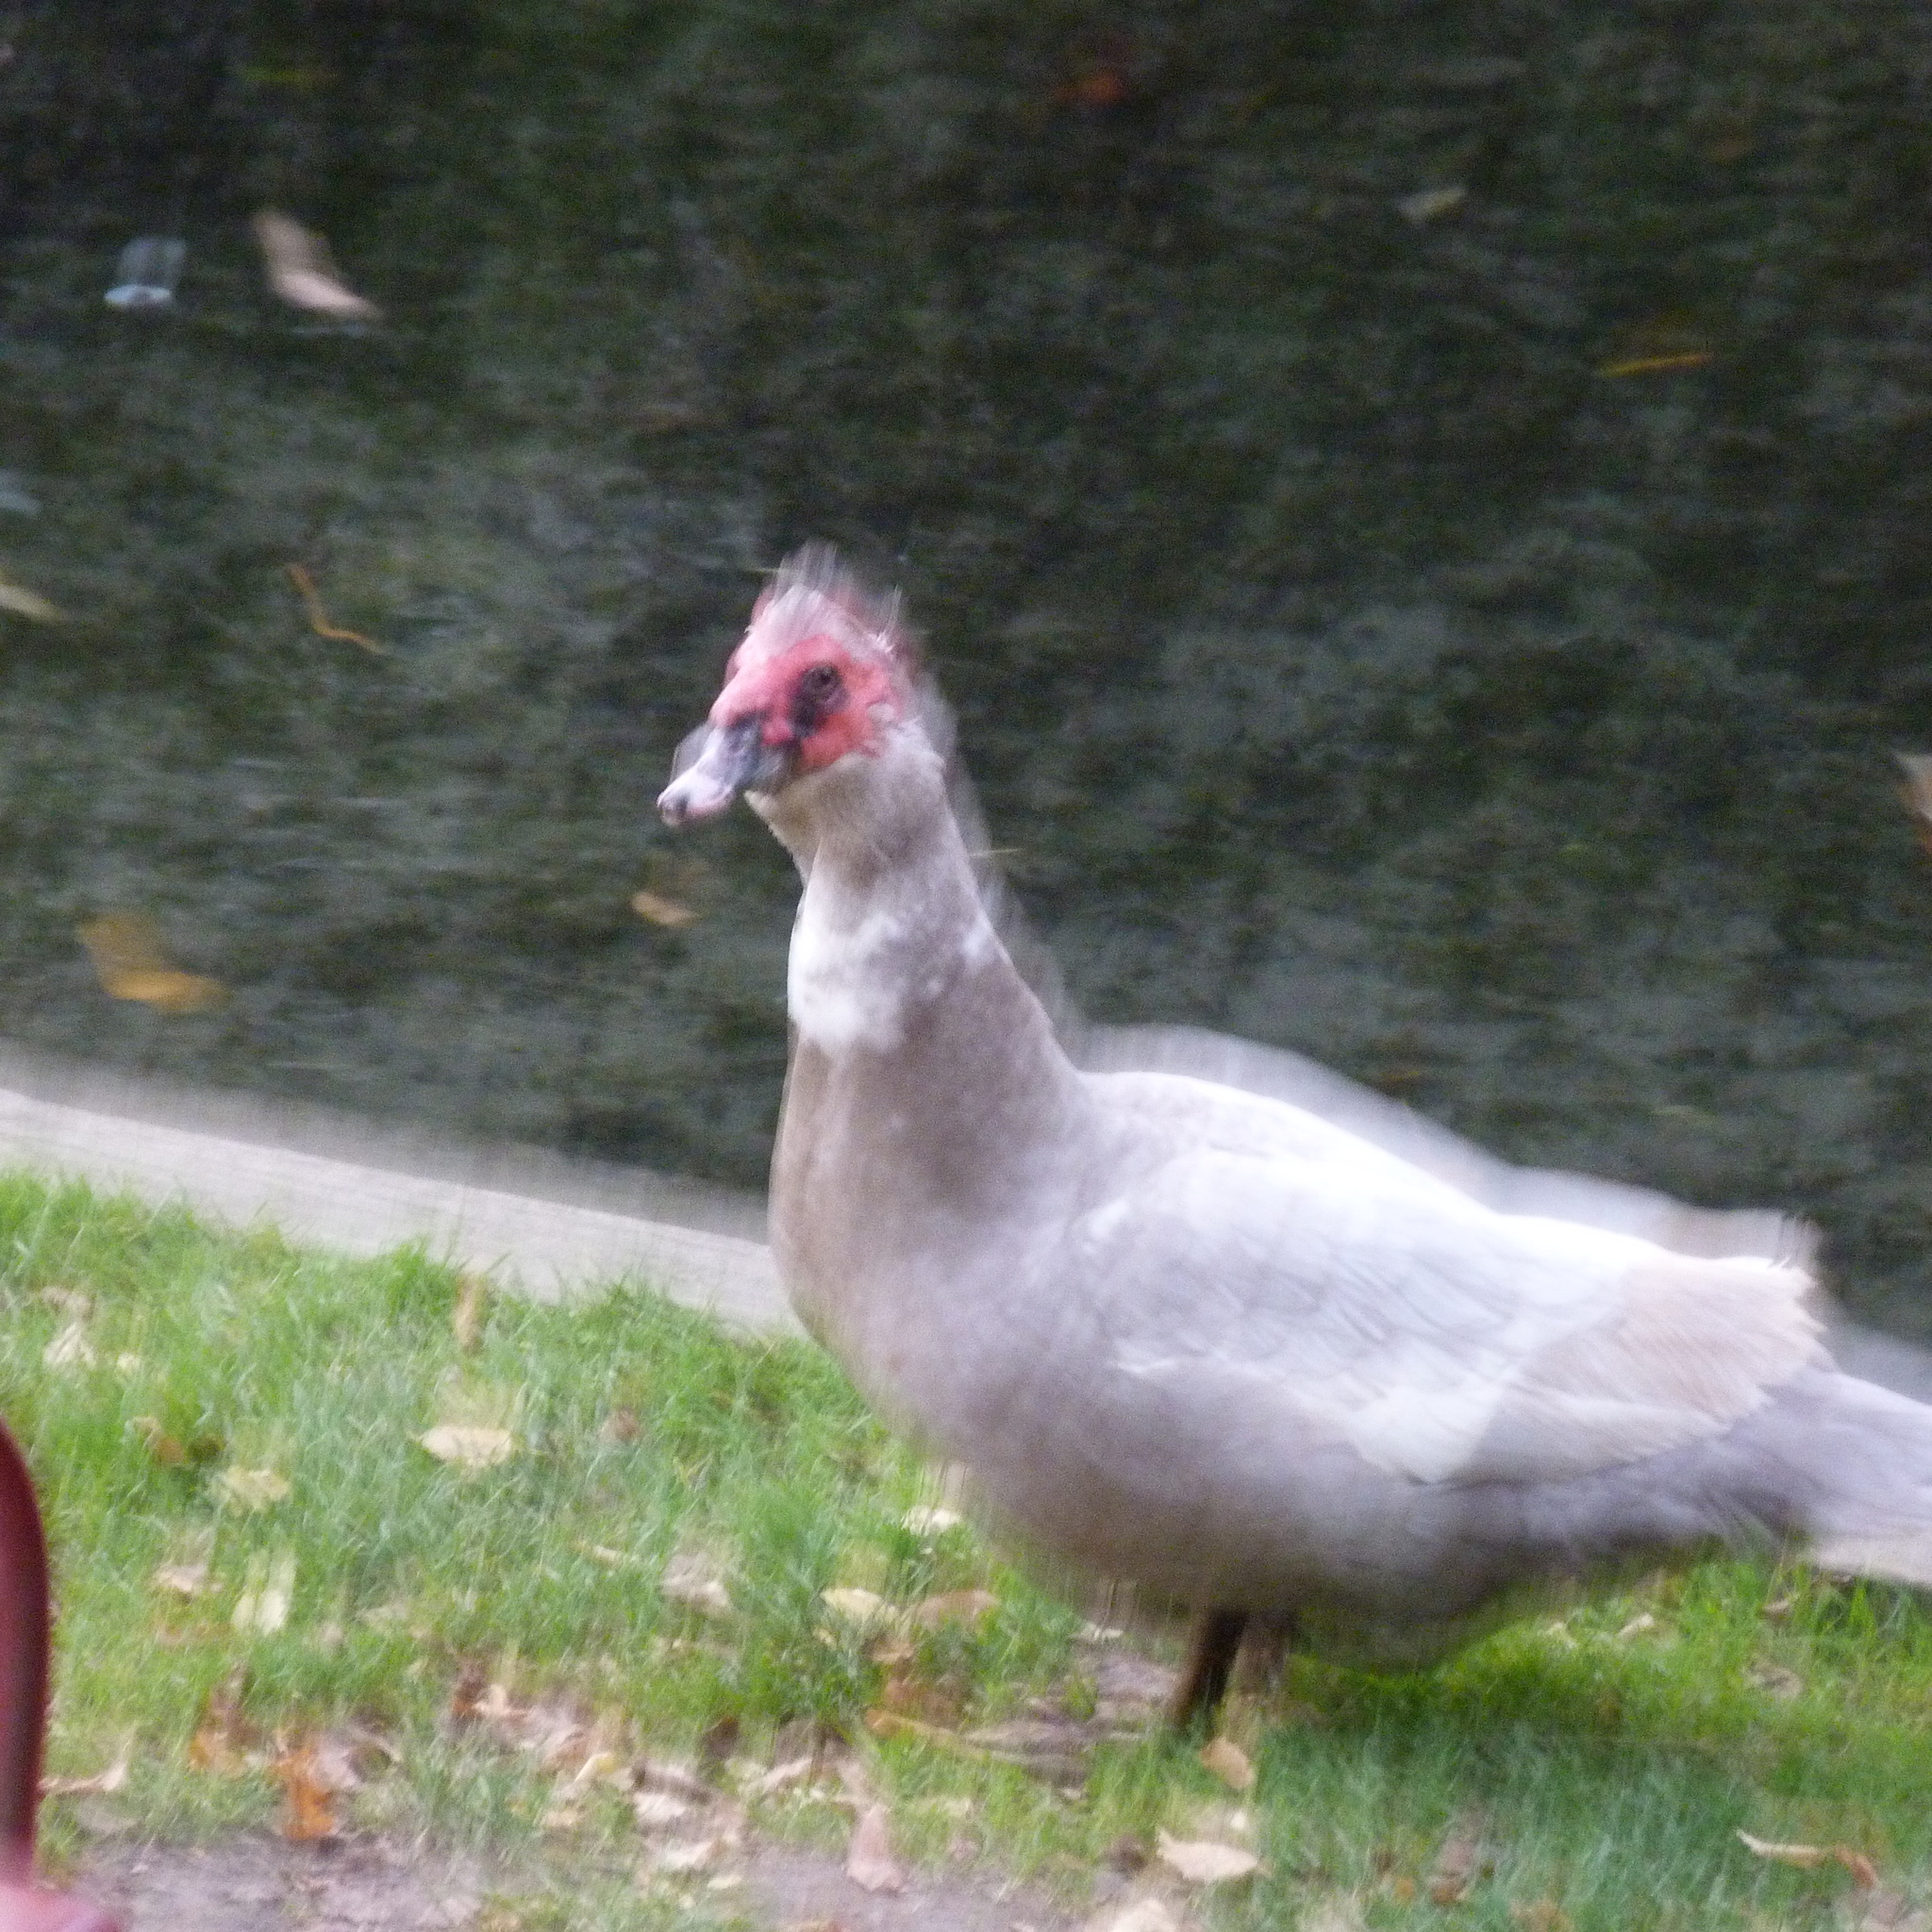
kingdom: Animalia
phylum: Chordata
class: Aves
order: Anseriformes
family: Anatidae
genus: Cairina
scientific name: Cairina moschata
